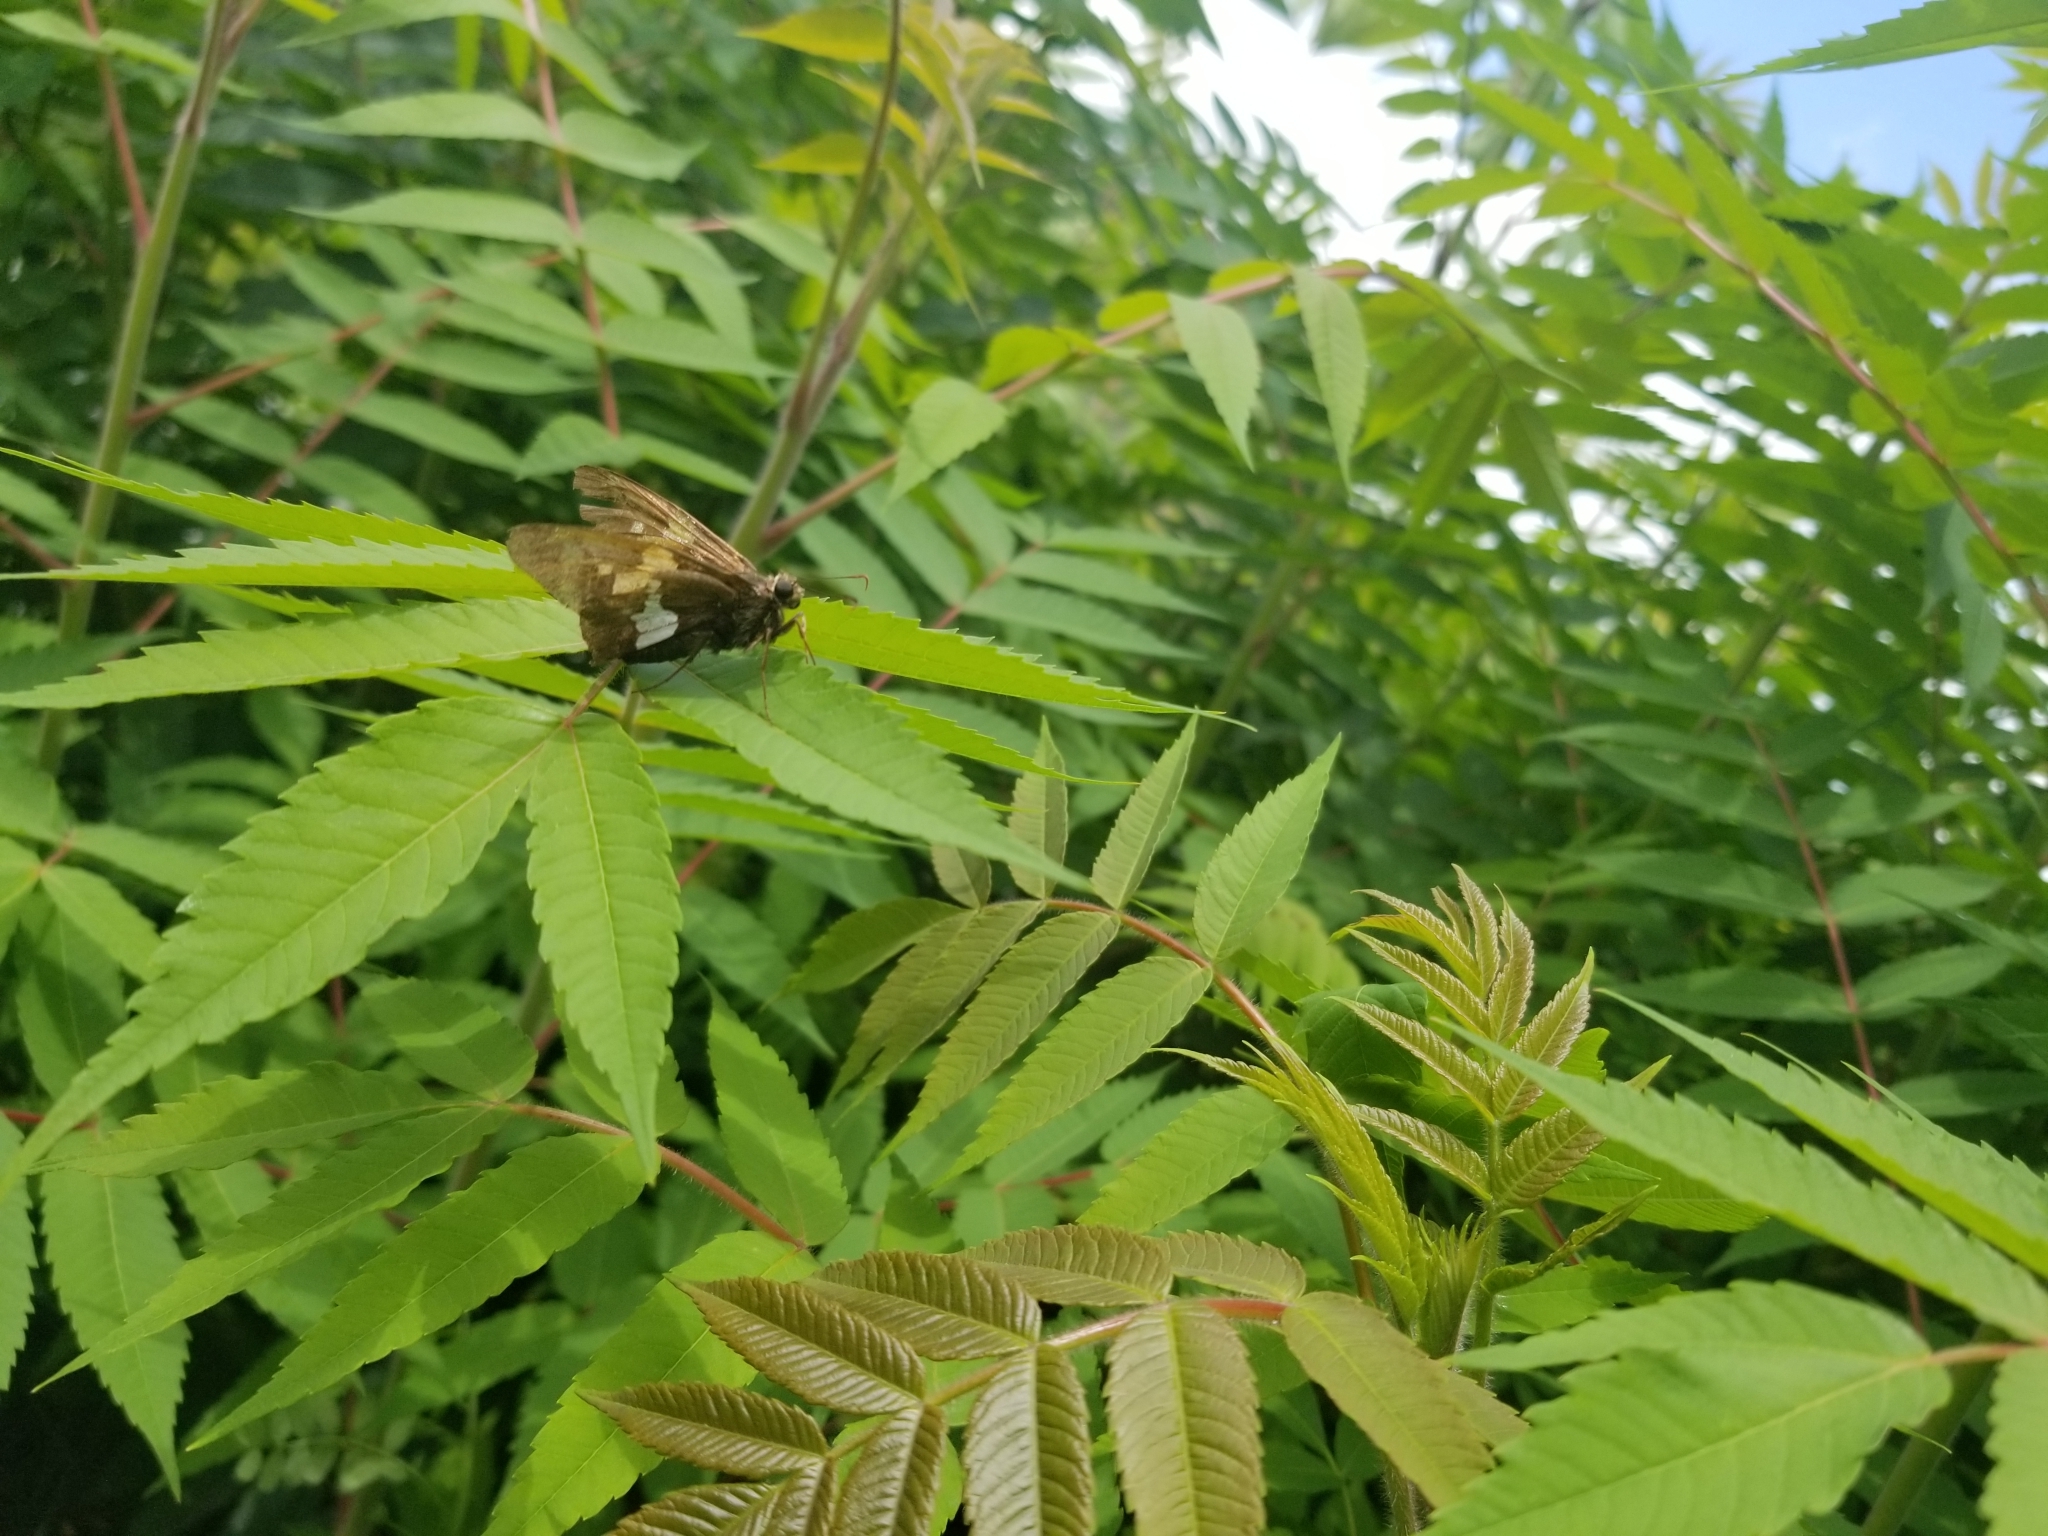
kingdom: Animalia
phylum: Arthropoda
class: Insecta
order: Lepidoptera
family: Hesperiidae
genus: Epargyreus
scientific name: Epargyreus clarus
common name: Silver-spotted skipper
